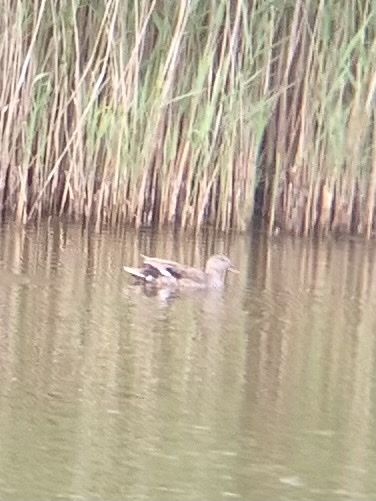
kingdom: Animalia
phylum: Chordata
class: Aves
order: Anseriformes
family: Anatidae
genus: Mareca
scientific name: Mareca strepera
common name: Gadwall
